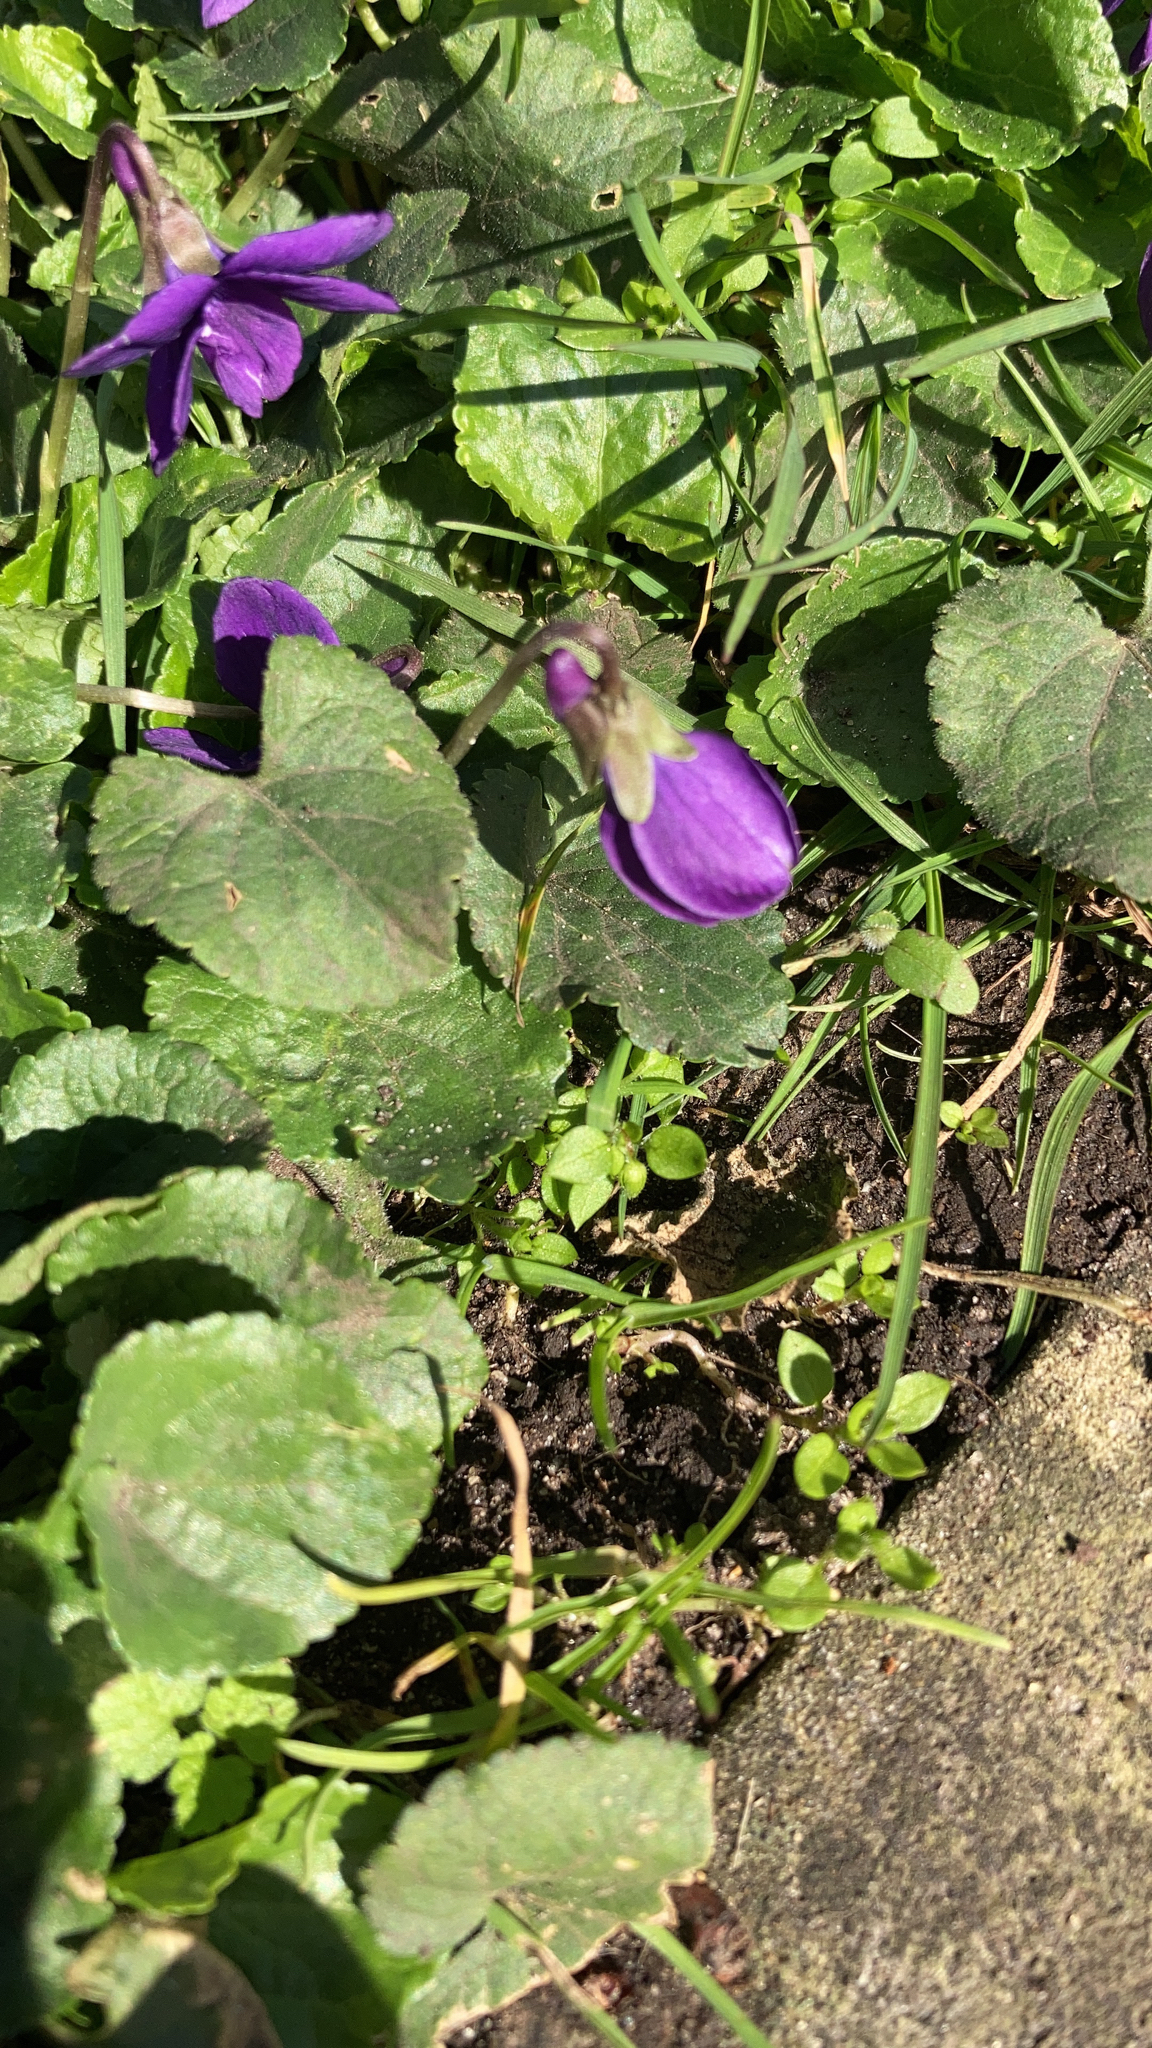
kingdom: Plantae
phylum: Tracheophyta
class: Magnoliopsida
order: Malpighiales
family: Violaceae
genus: Viola
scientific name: Viola odorata
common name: Sweet violet
